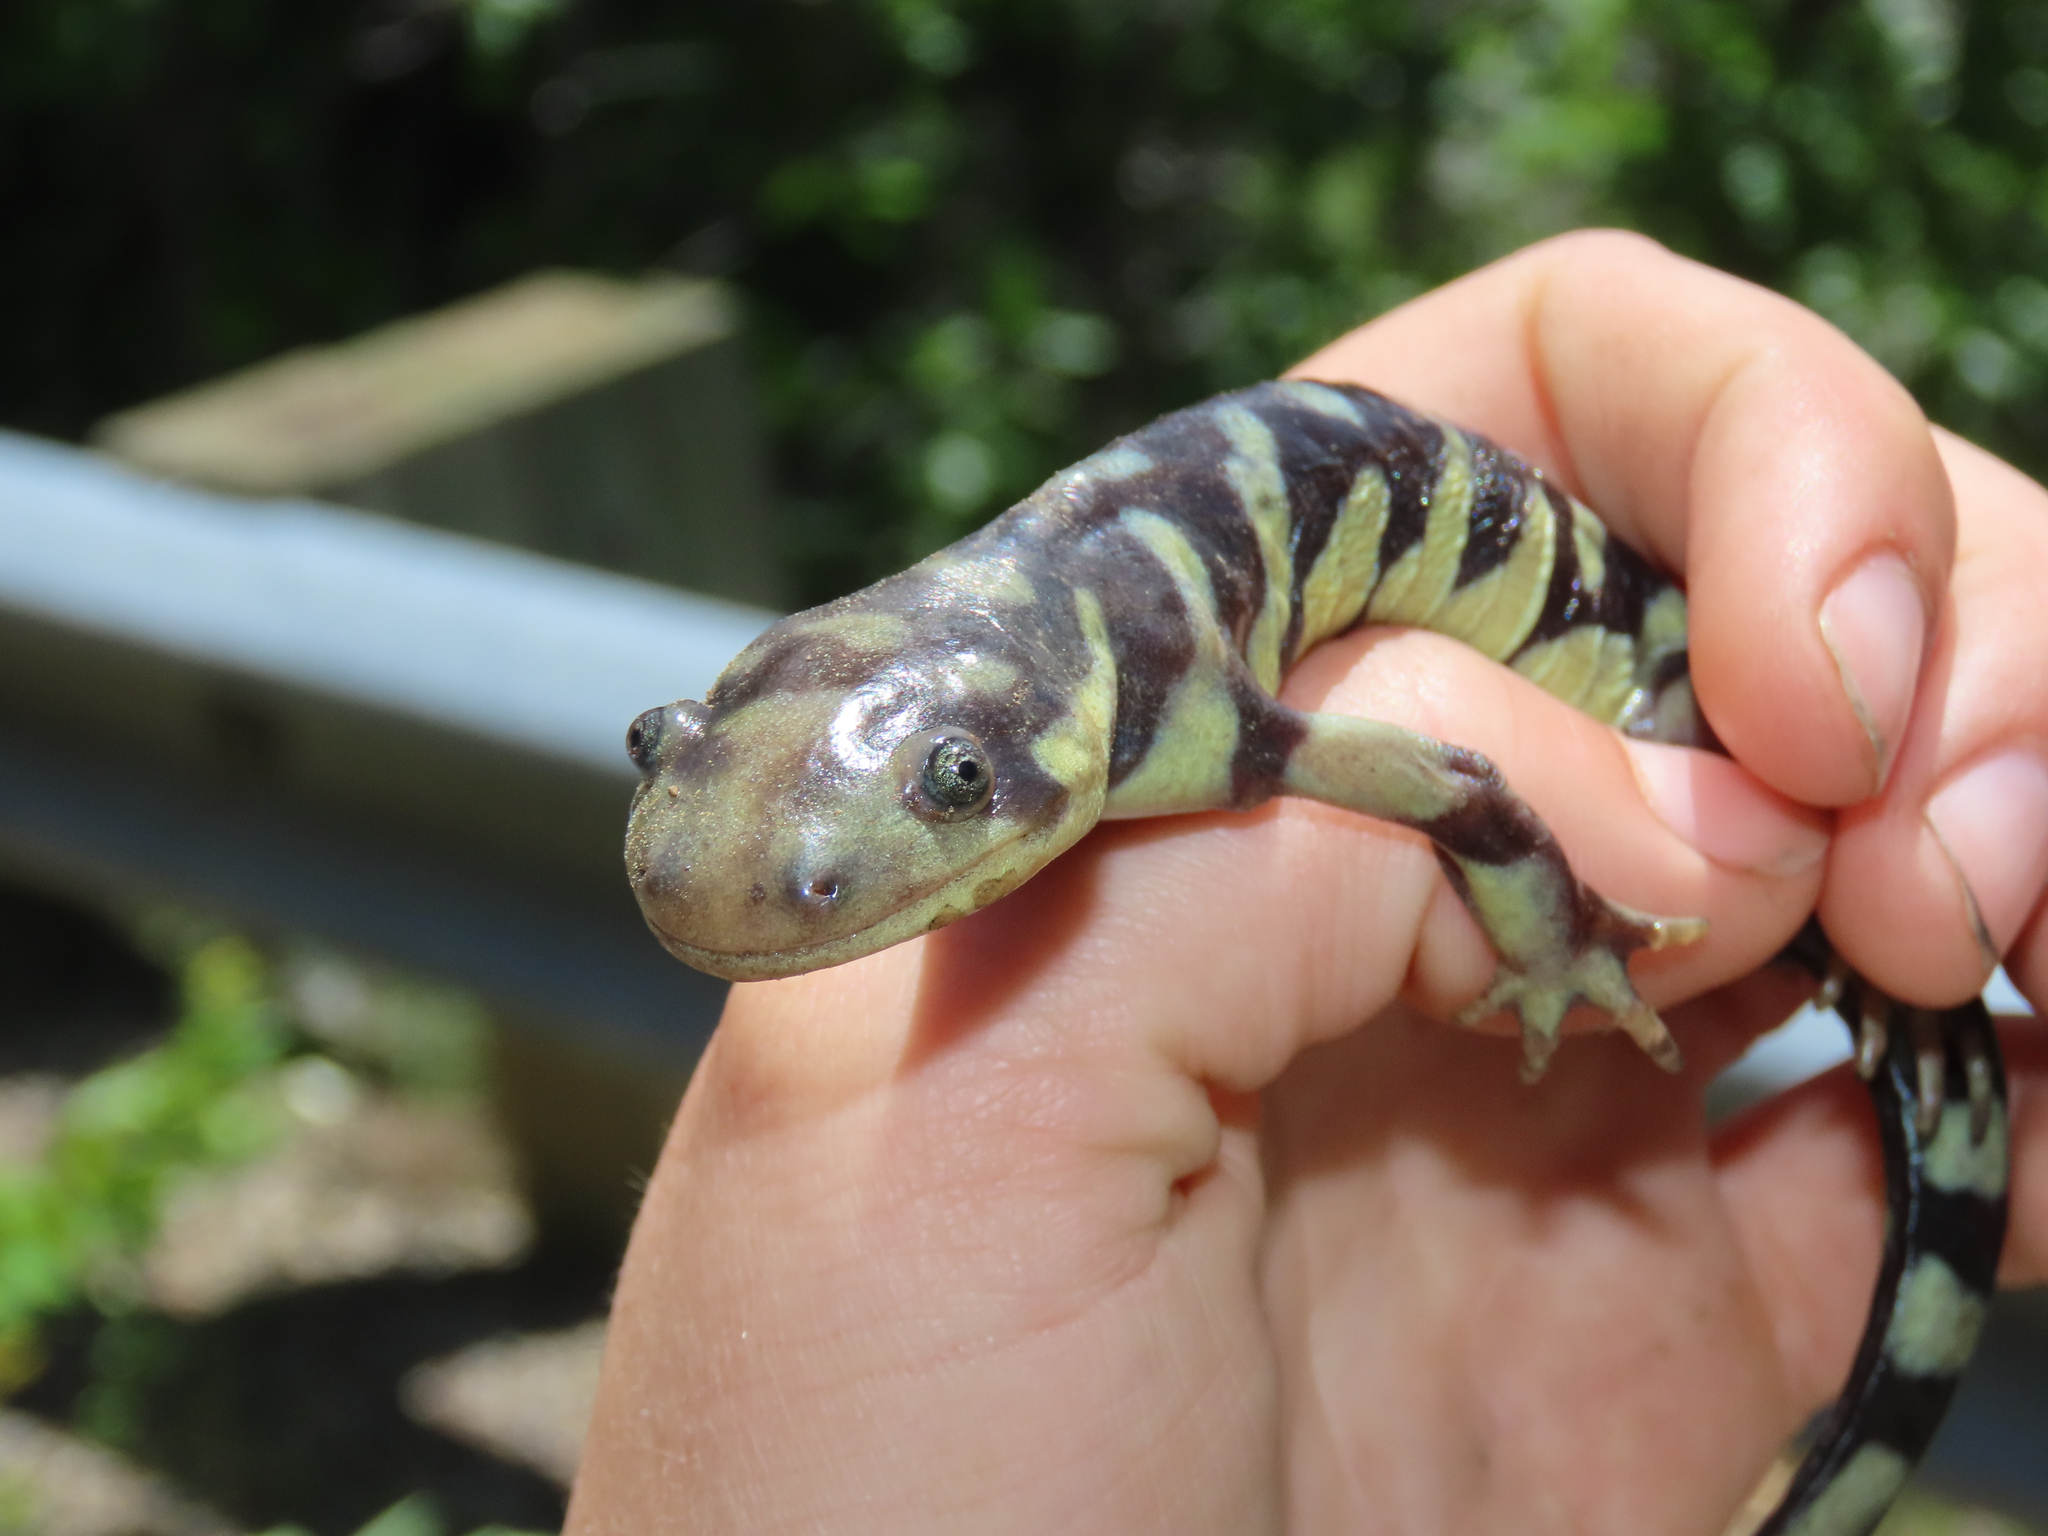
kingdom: Animalia
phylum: Chordata
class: Amphibia
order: Caudata
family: Ambystomatidae
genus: Ambystoma
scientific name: Ambystoma mavortium
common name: Western tiger salamander
